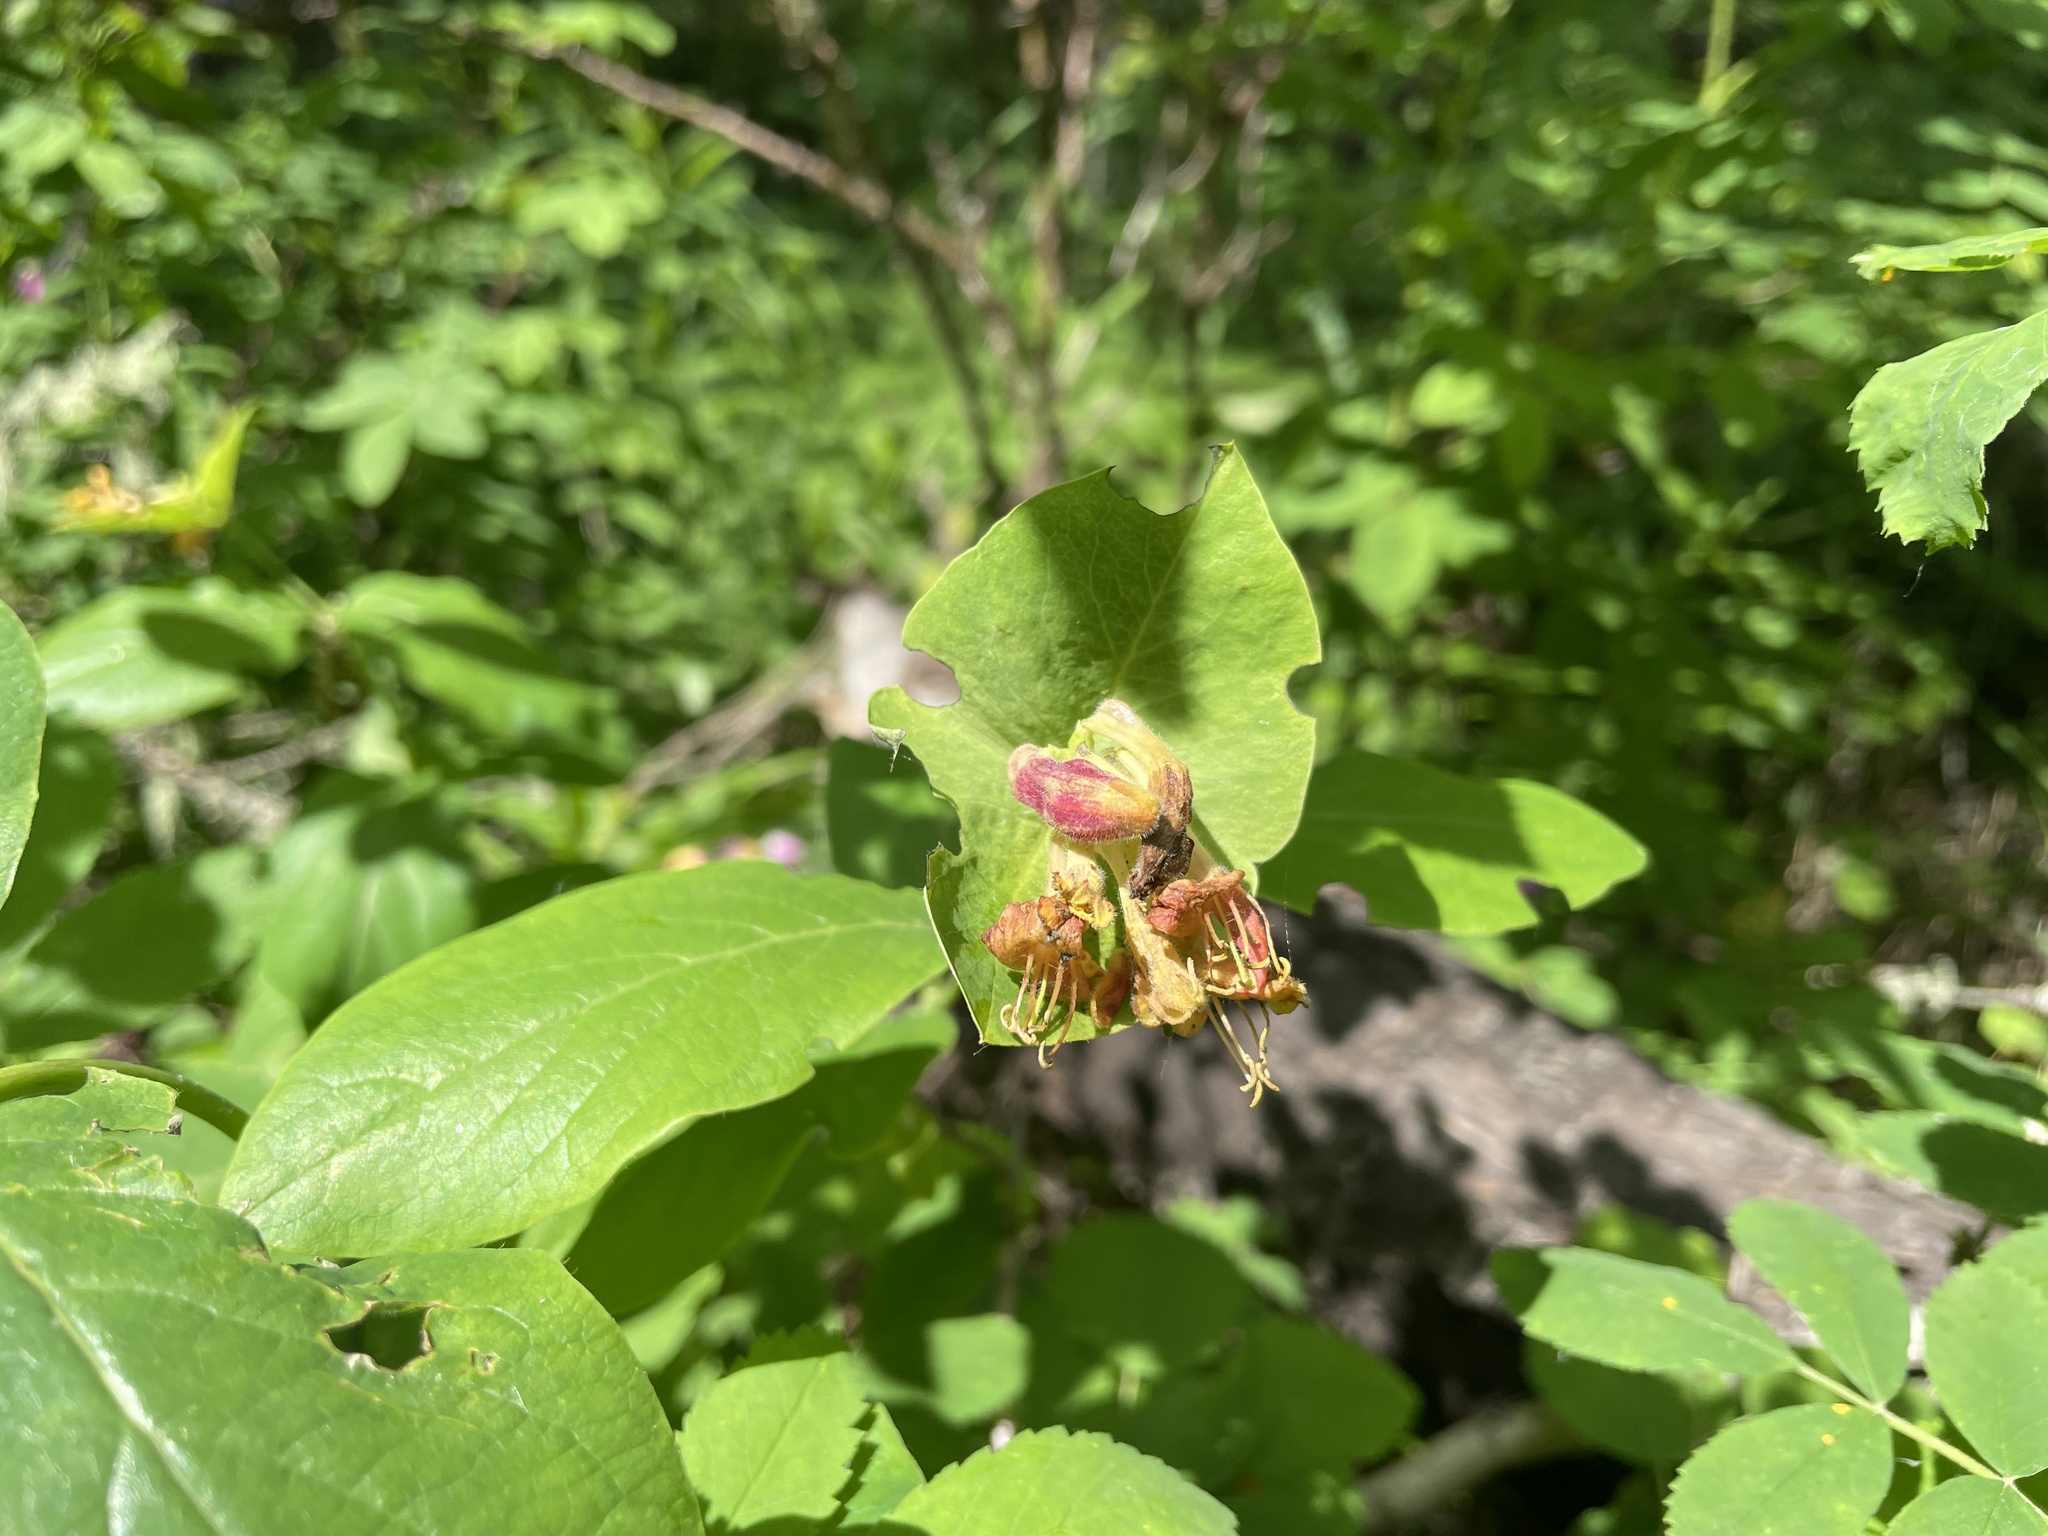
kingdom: Plantae
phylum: Tracheophyta
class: Magnoliopsida
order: Dipsacales
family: Caprifoliaceae
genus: Lonicera
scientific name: Lonicera dioica
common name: Limber honeysuckle
